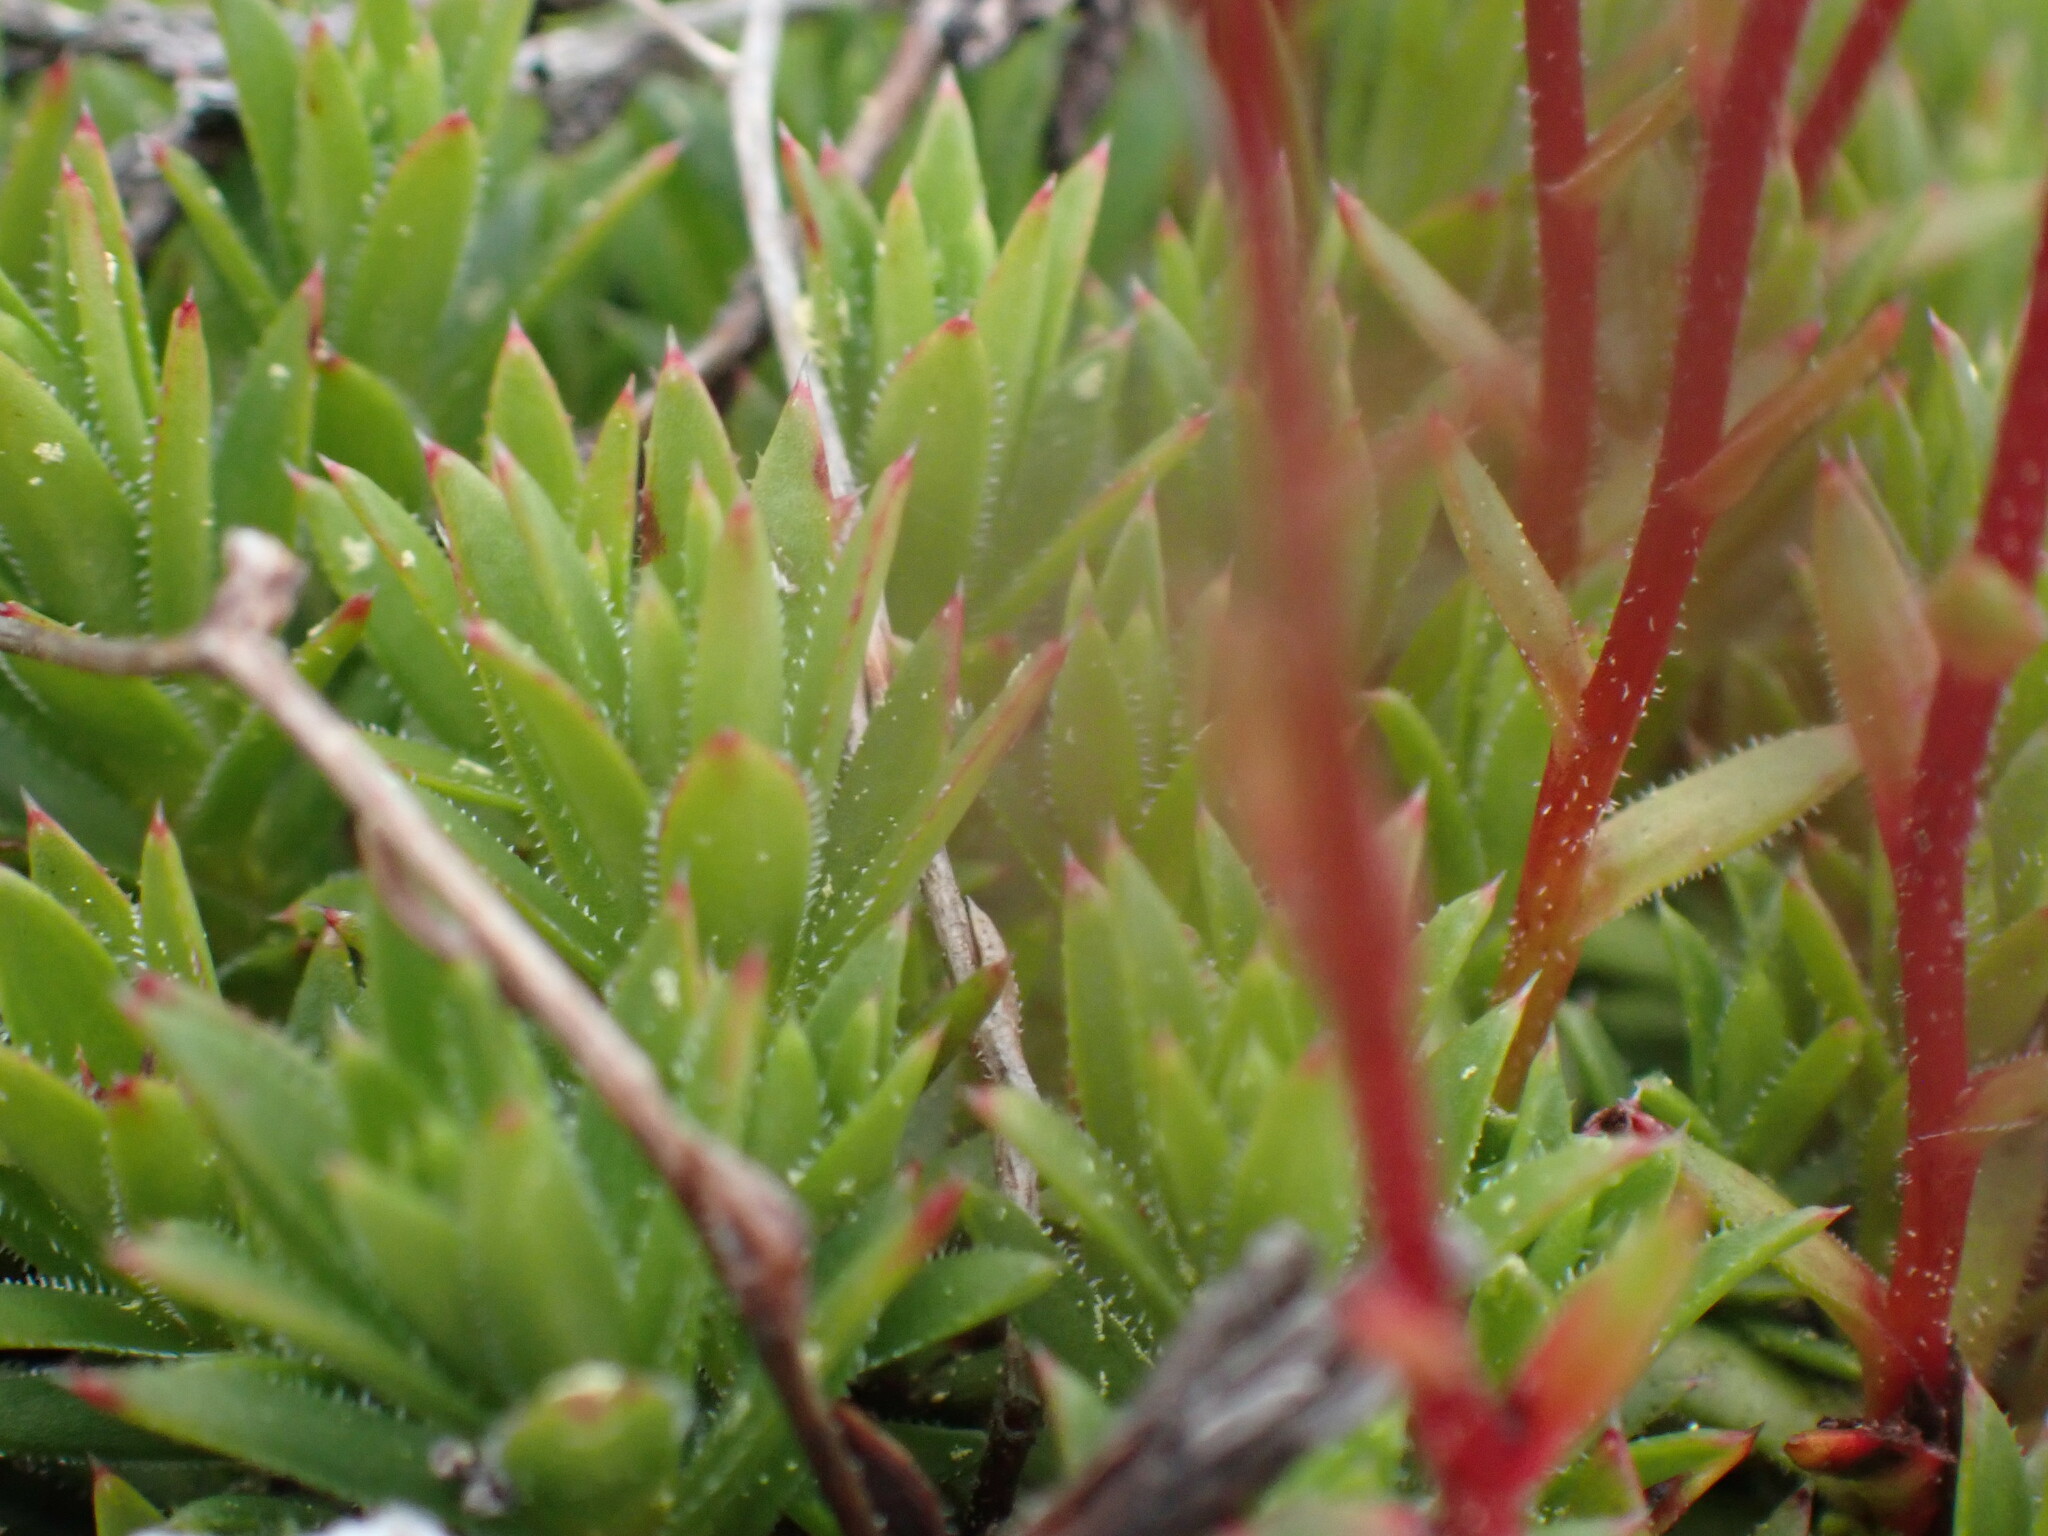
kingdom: Plantae
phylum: Tracheophyta
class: Magnoliopsida
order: Saxifragales
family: Saxifragaceae
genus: Saxifraga
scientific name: Saxifraga bronchialis
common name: Matted saxifrage
